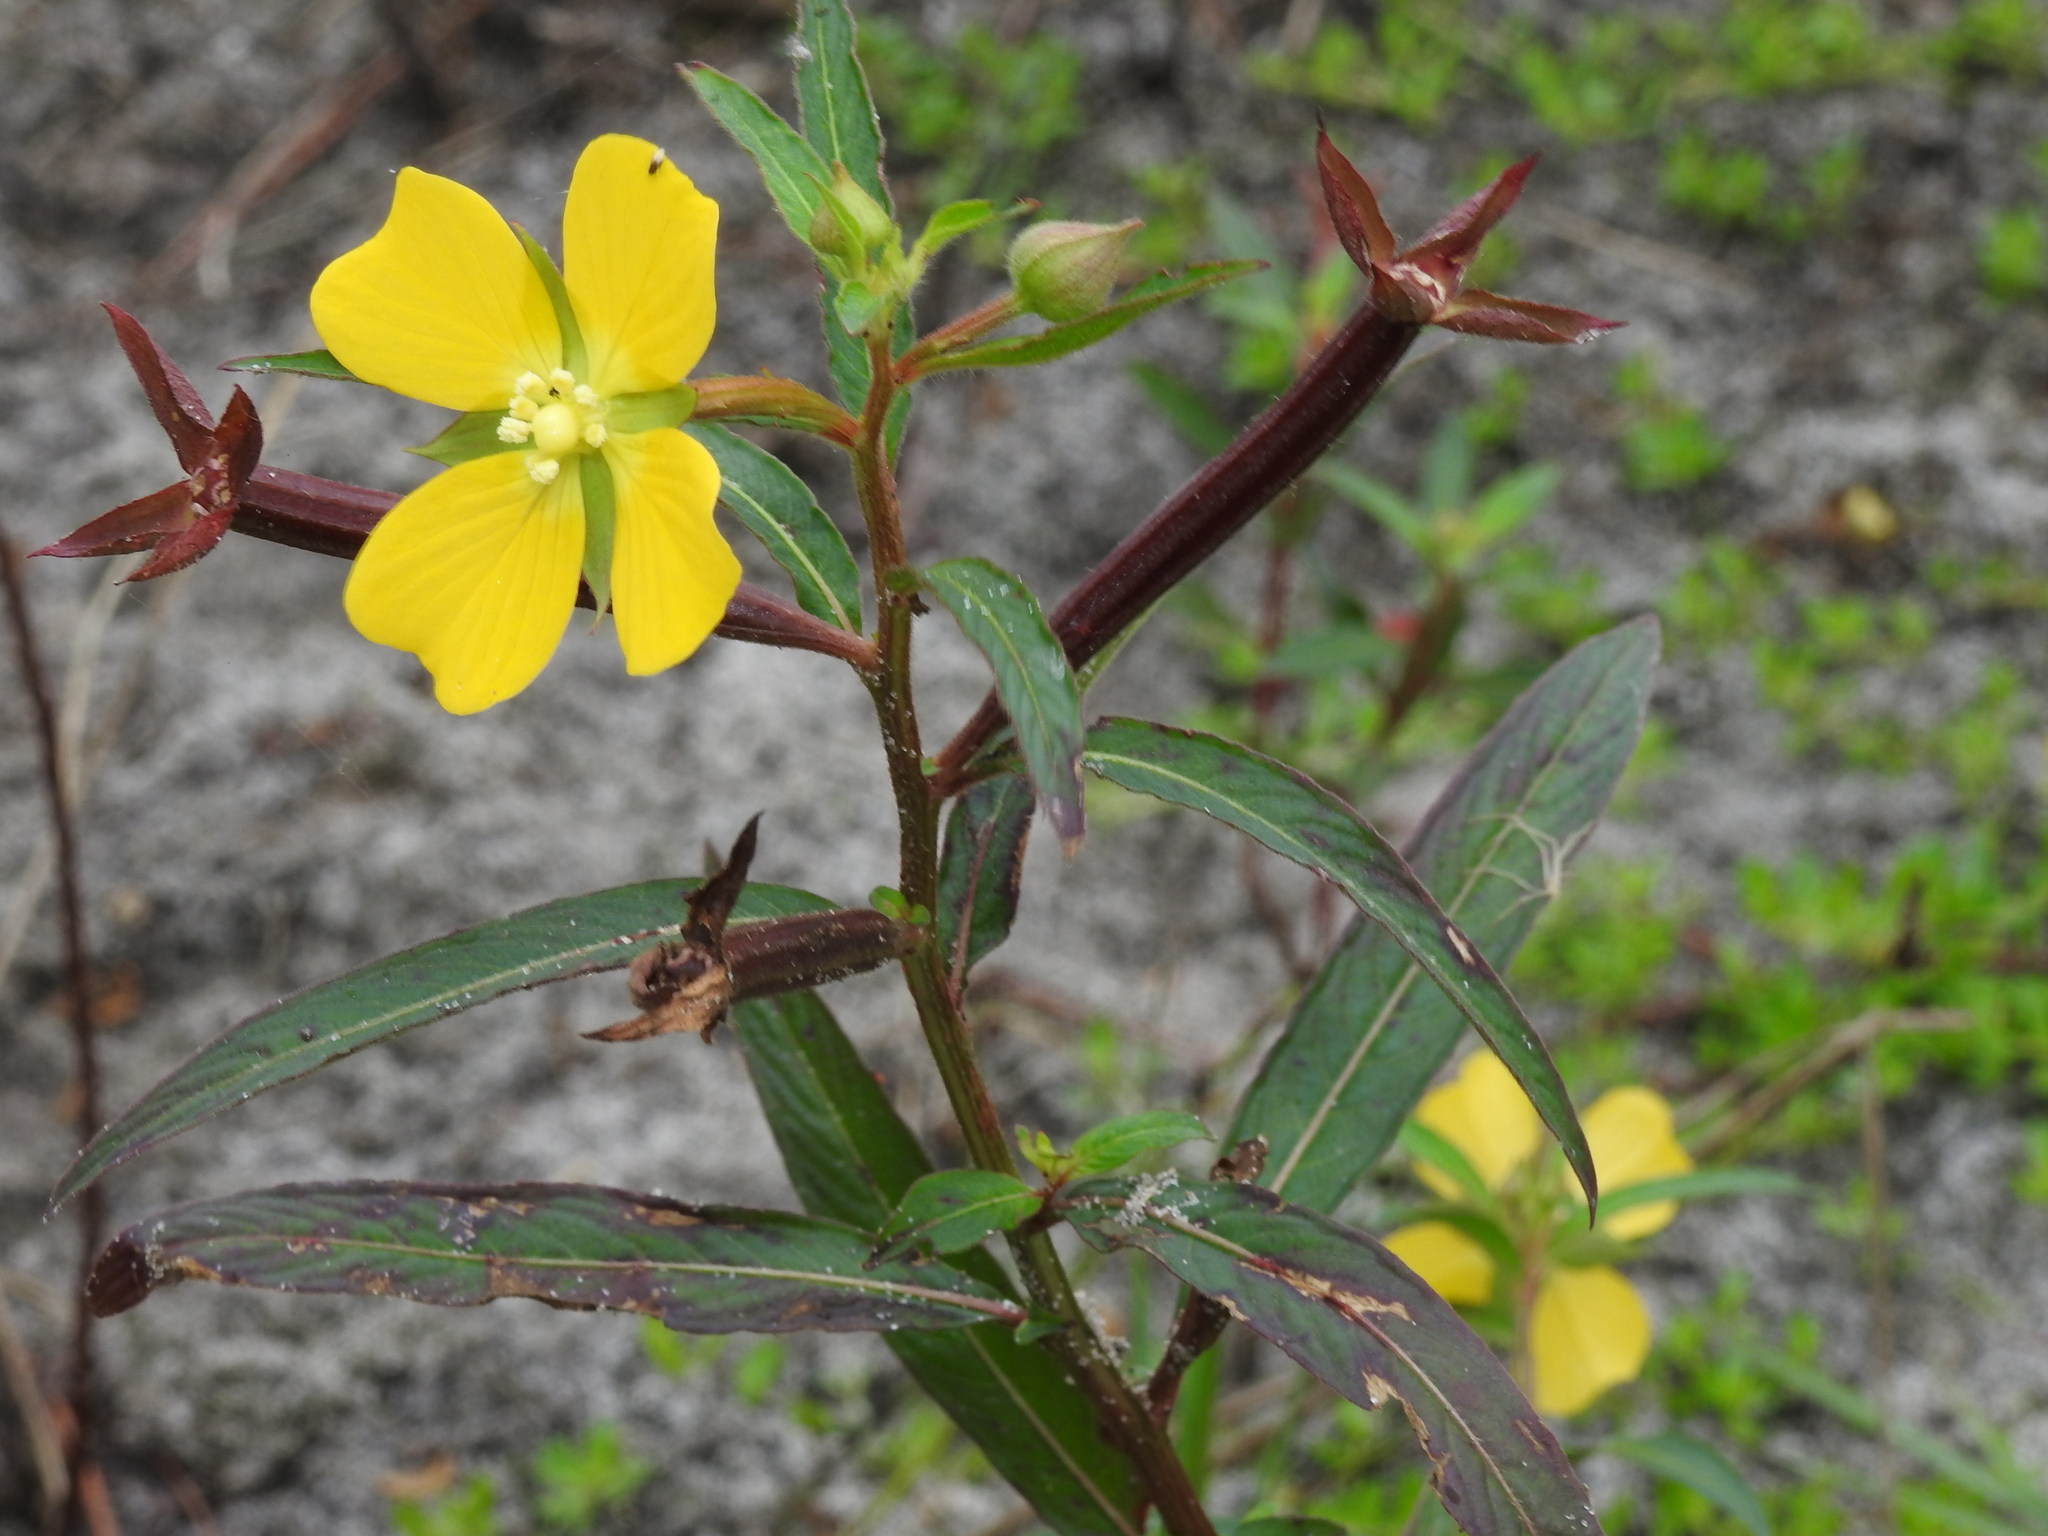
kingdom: Plantae
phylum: Tracheophyta
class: Magnoliopsida
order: Myrtales
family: Onagraceae
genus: Ludwigia
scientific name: Ludwigia octovalvis
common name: Water-primrose
